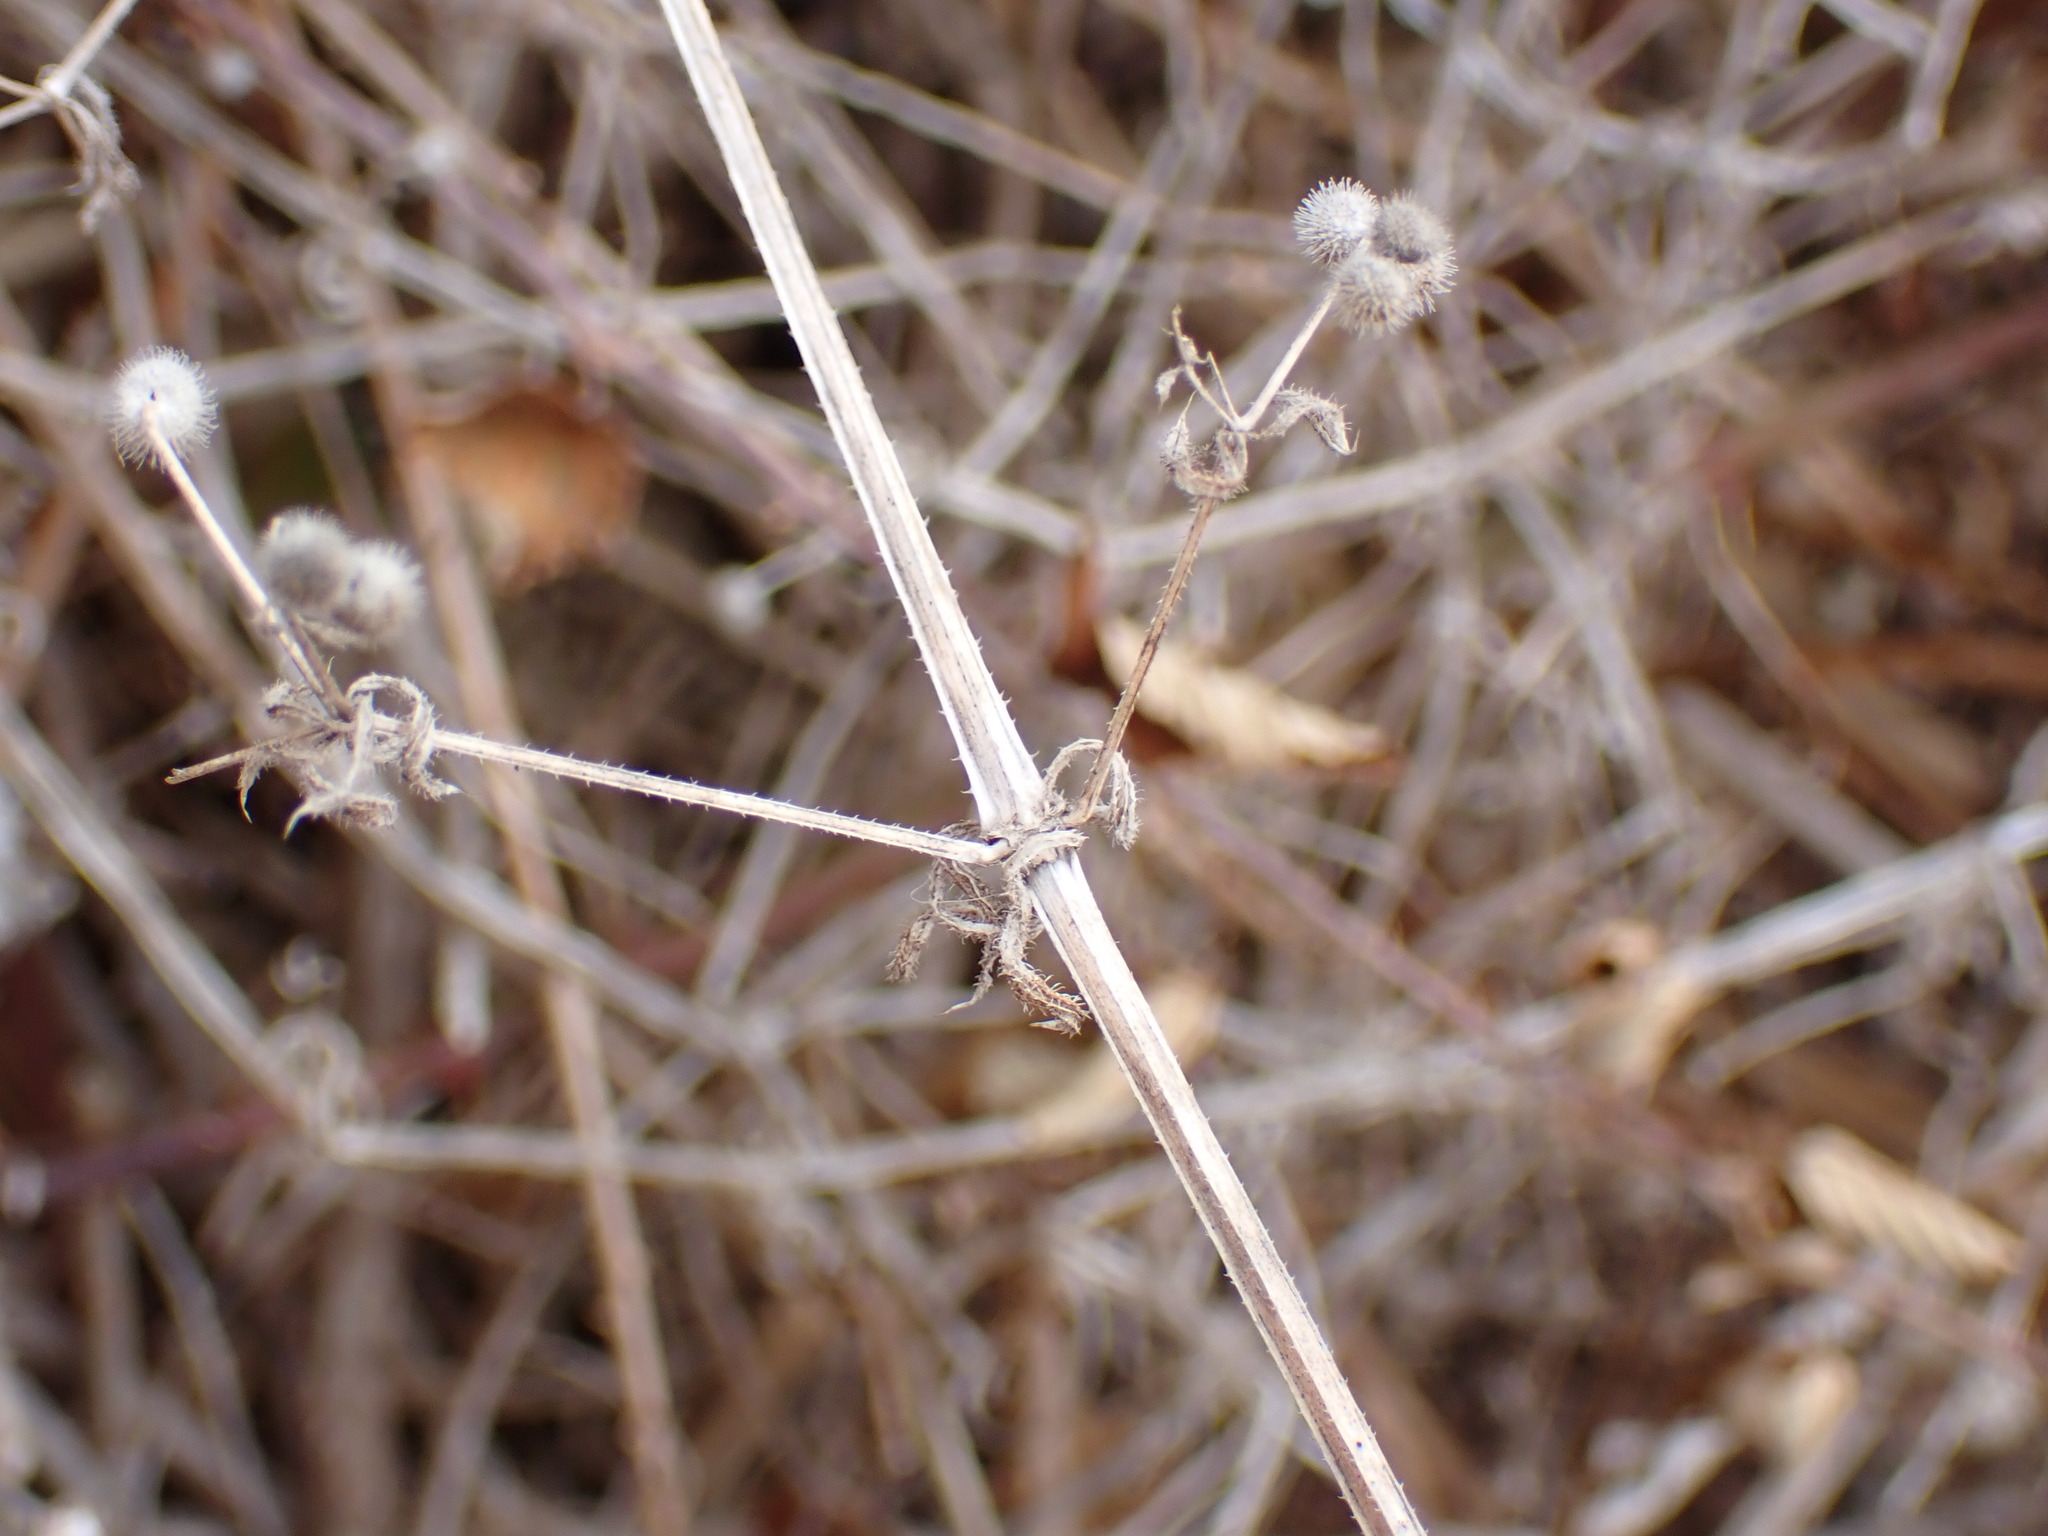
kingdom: Plantae
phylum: Tracheophyta
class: Magnoliopsida
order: Gentianales
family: Rubiaceae
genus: Galium
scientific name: Galium scabrum
